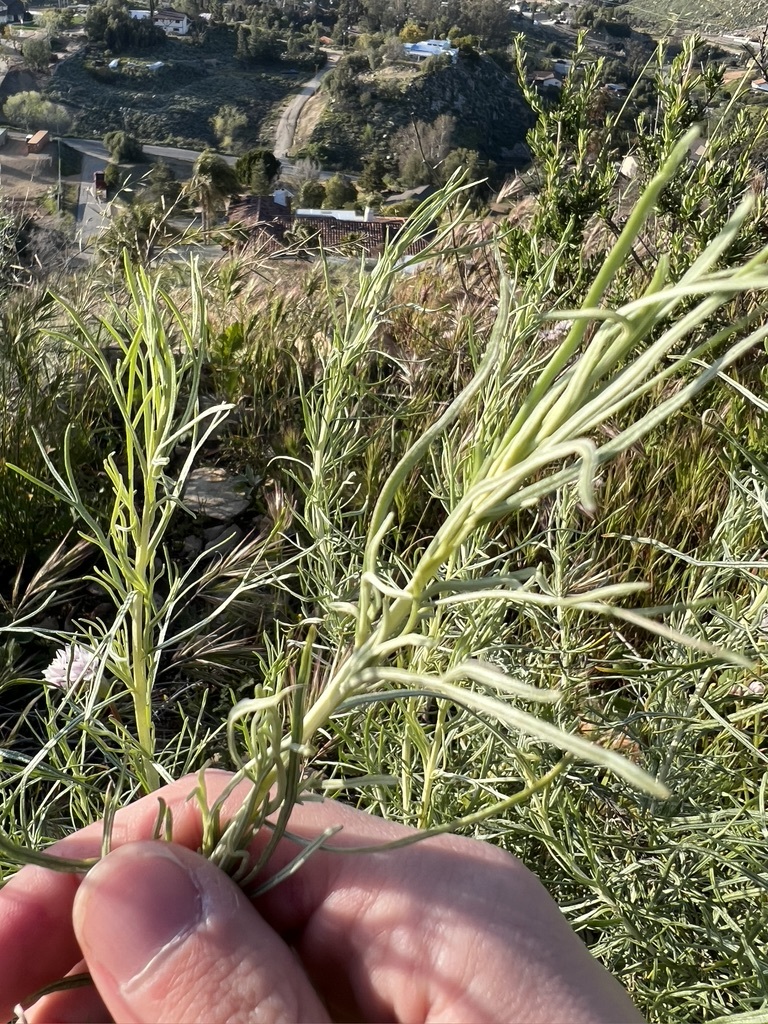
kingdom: Plantae
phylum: Tracheophyta
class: Magnoliopsida
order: Asterales
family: Asteraceae
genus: Artemisia
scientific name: Artemisia californica
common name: California sagebrush
